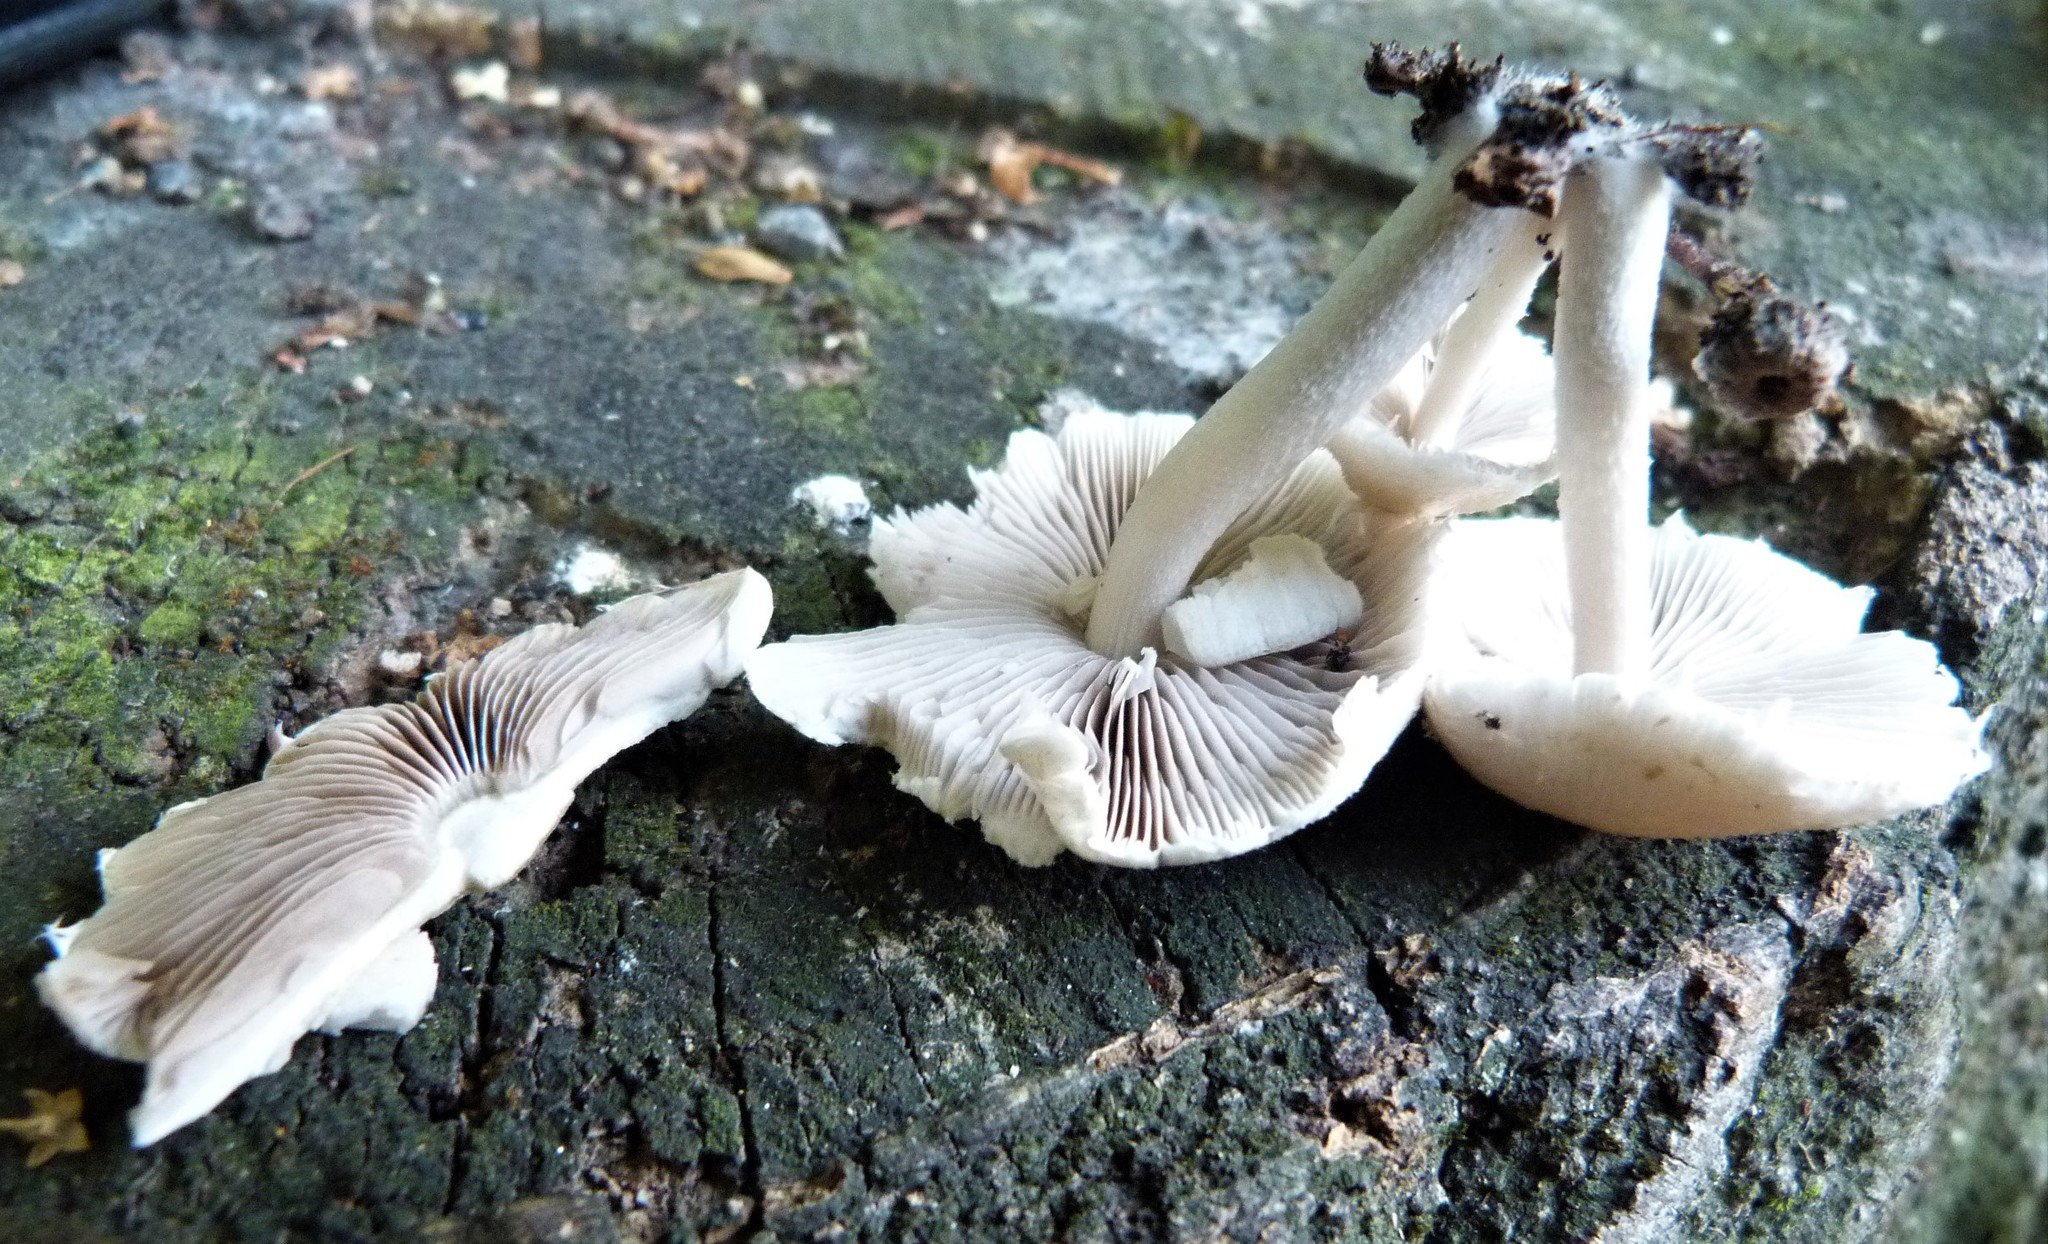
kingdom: Fungi
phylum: Basidiomycota
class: Agaricomycetes
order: Agaricales
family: Psathyrellaceae
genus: Candolleomyces
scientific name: Candolleomyces candolleanus
